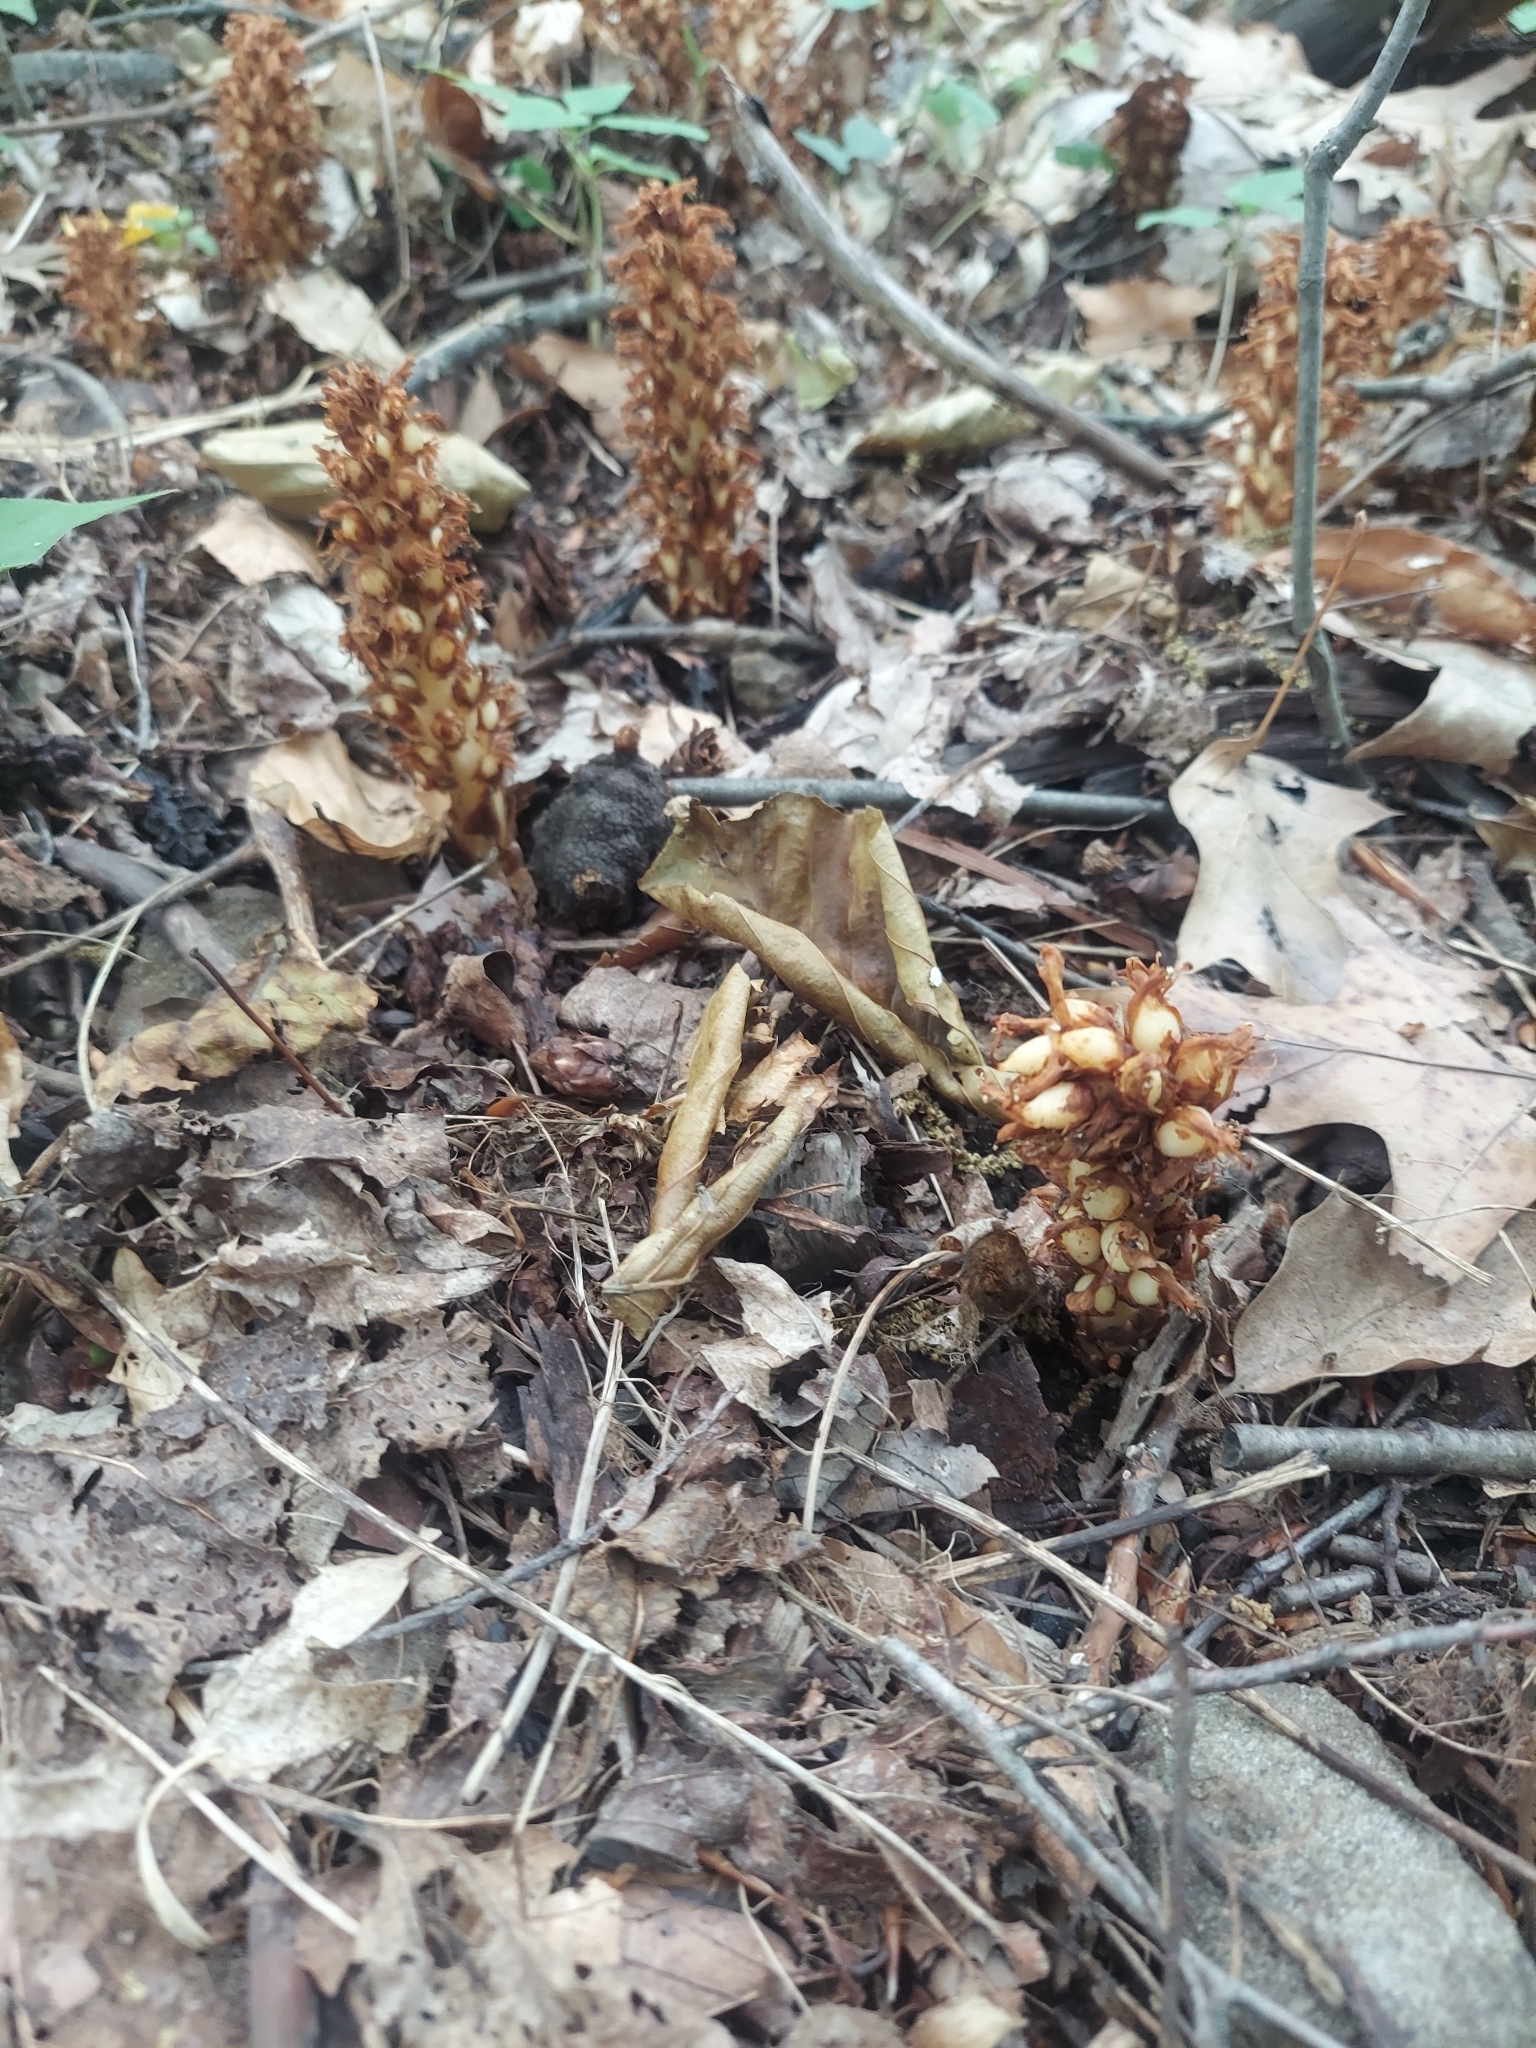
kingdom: Plantae
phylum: Tracheophyta
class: Magnoliopsida
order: Lamiales
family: Orobanchaceae
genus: Conopholis
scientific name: Conopholis americana
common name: American cancer-root
